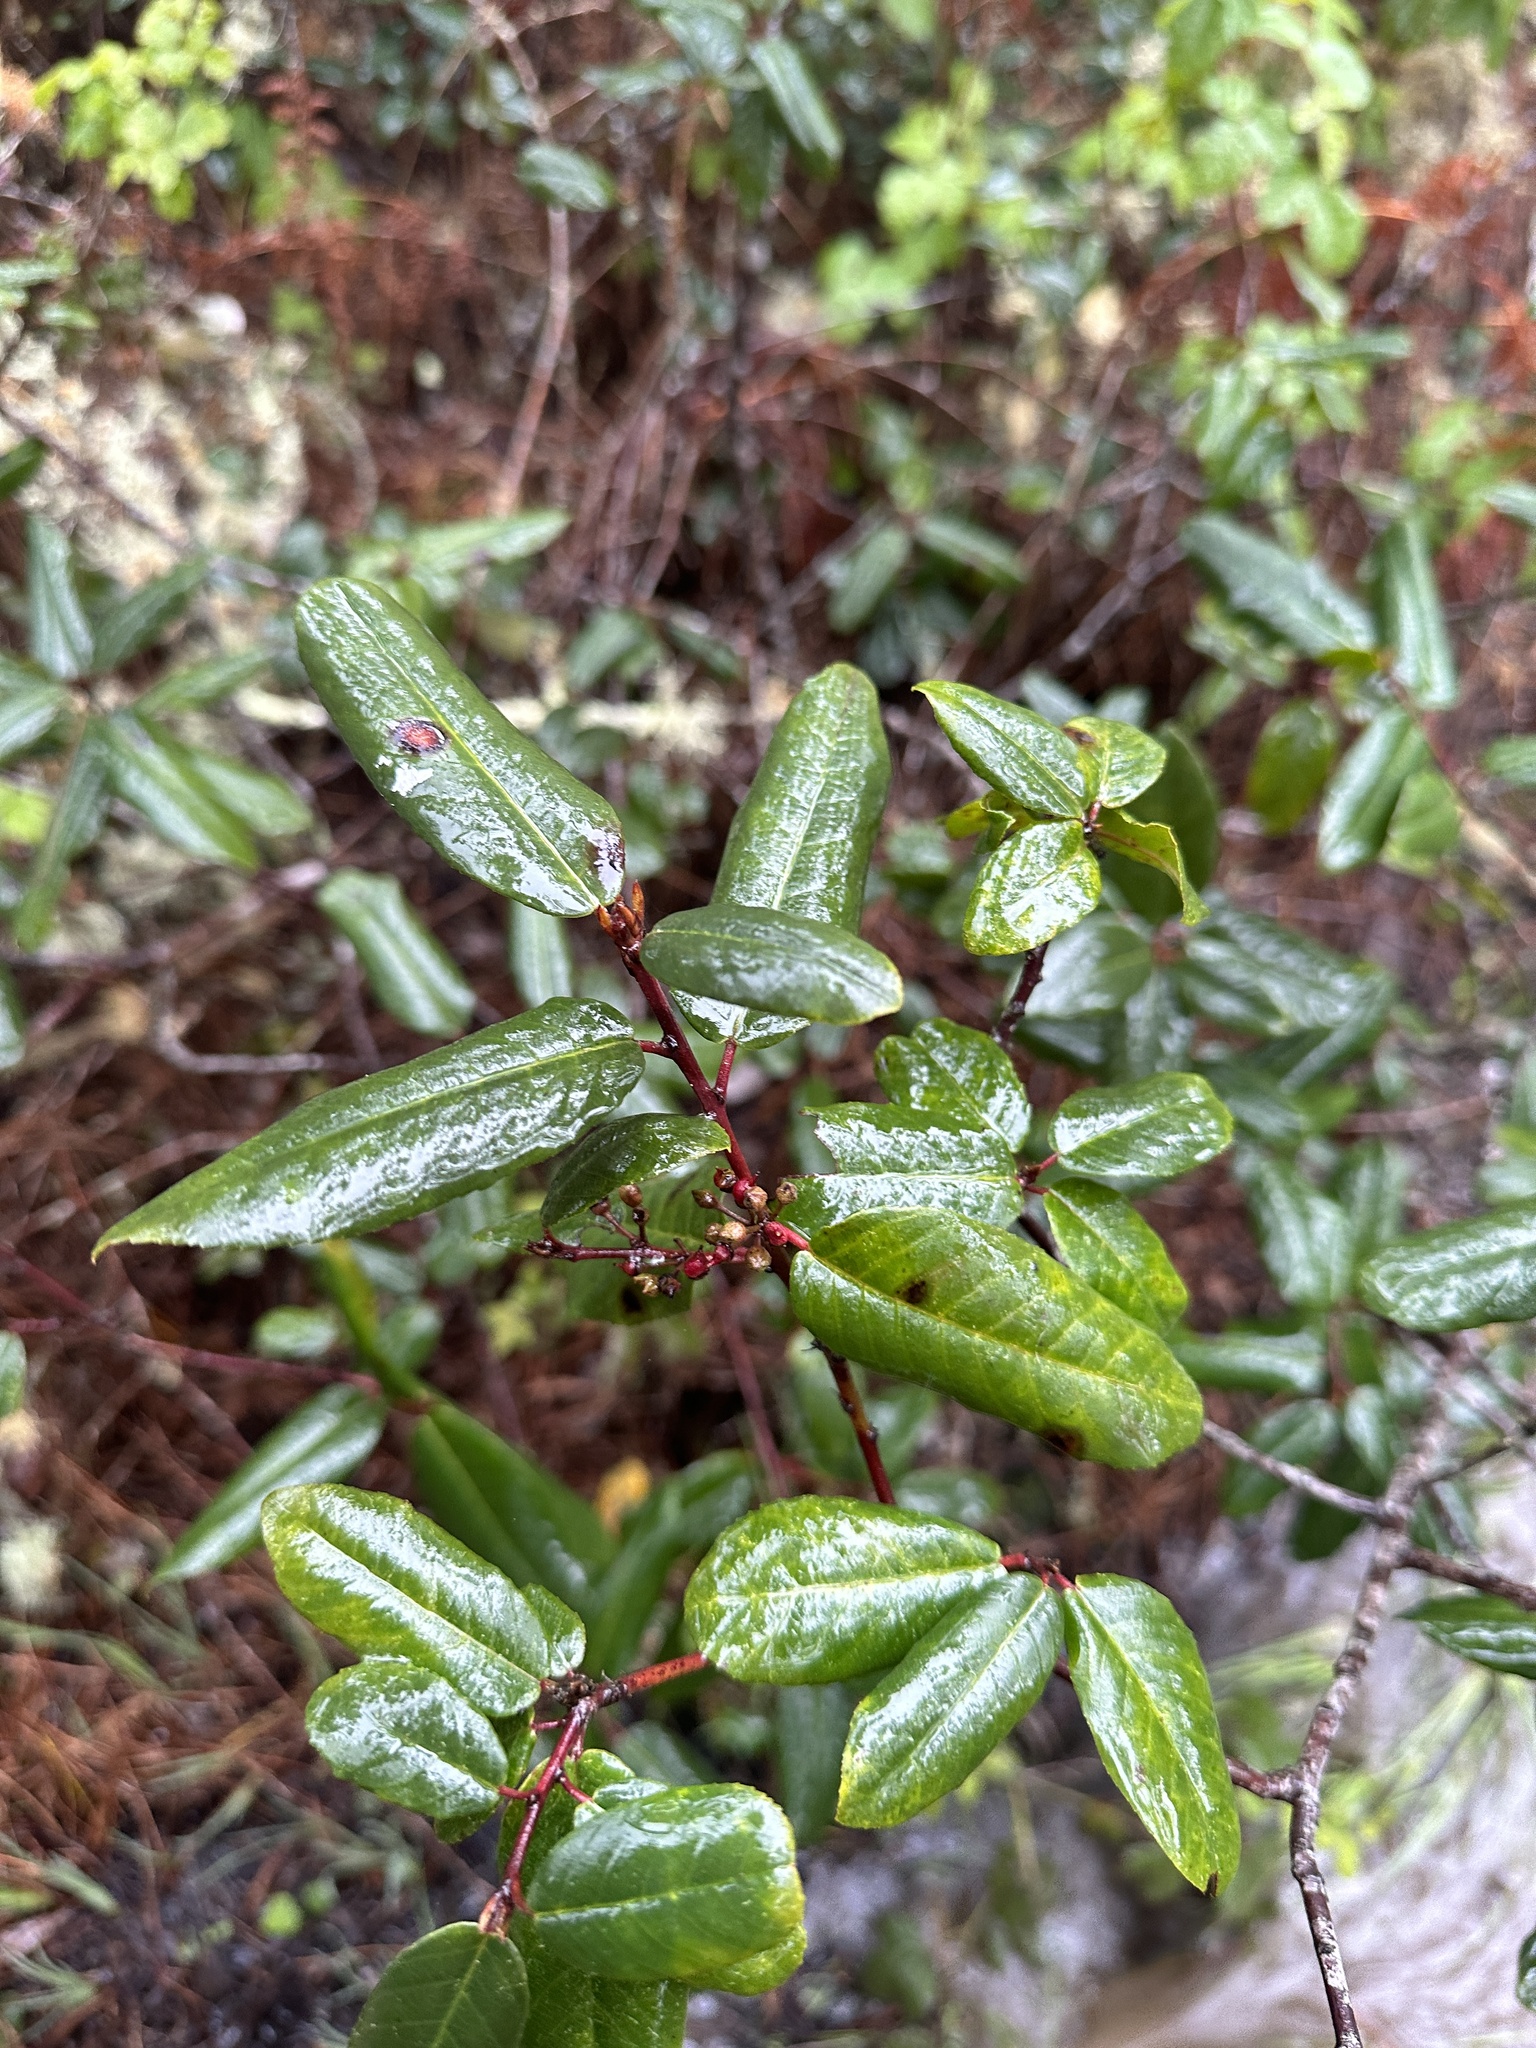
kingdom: Plantae
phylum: Tracheophyta
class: Magnoliopsida
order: Rosales
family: Rhamnaceae
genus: Frangula
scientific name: Frangula californica
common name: California buckthorn
